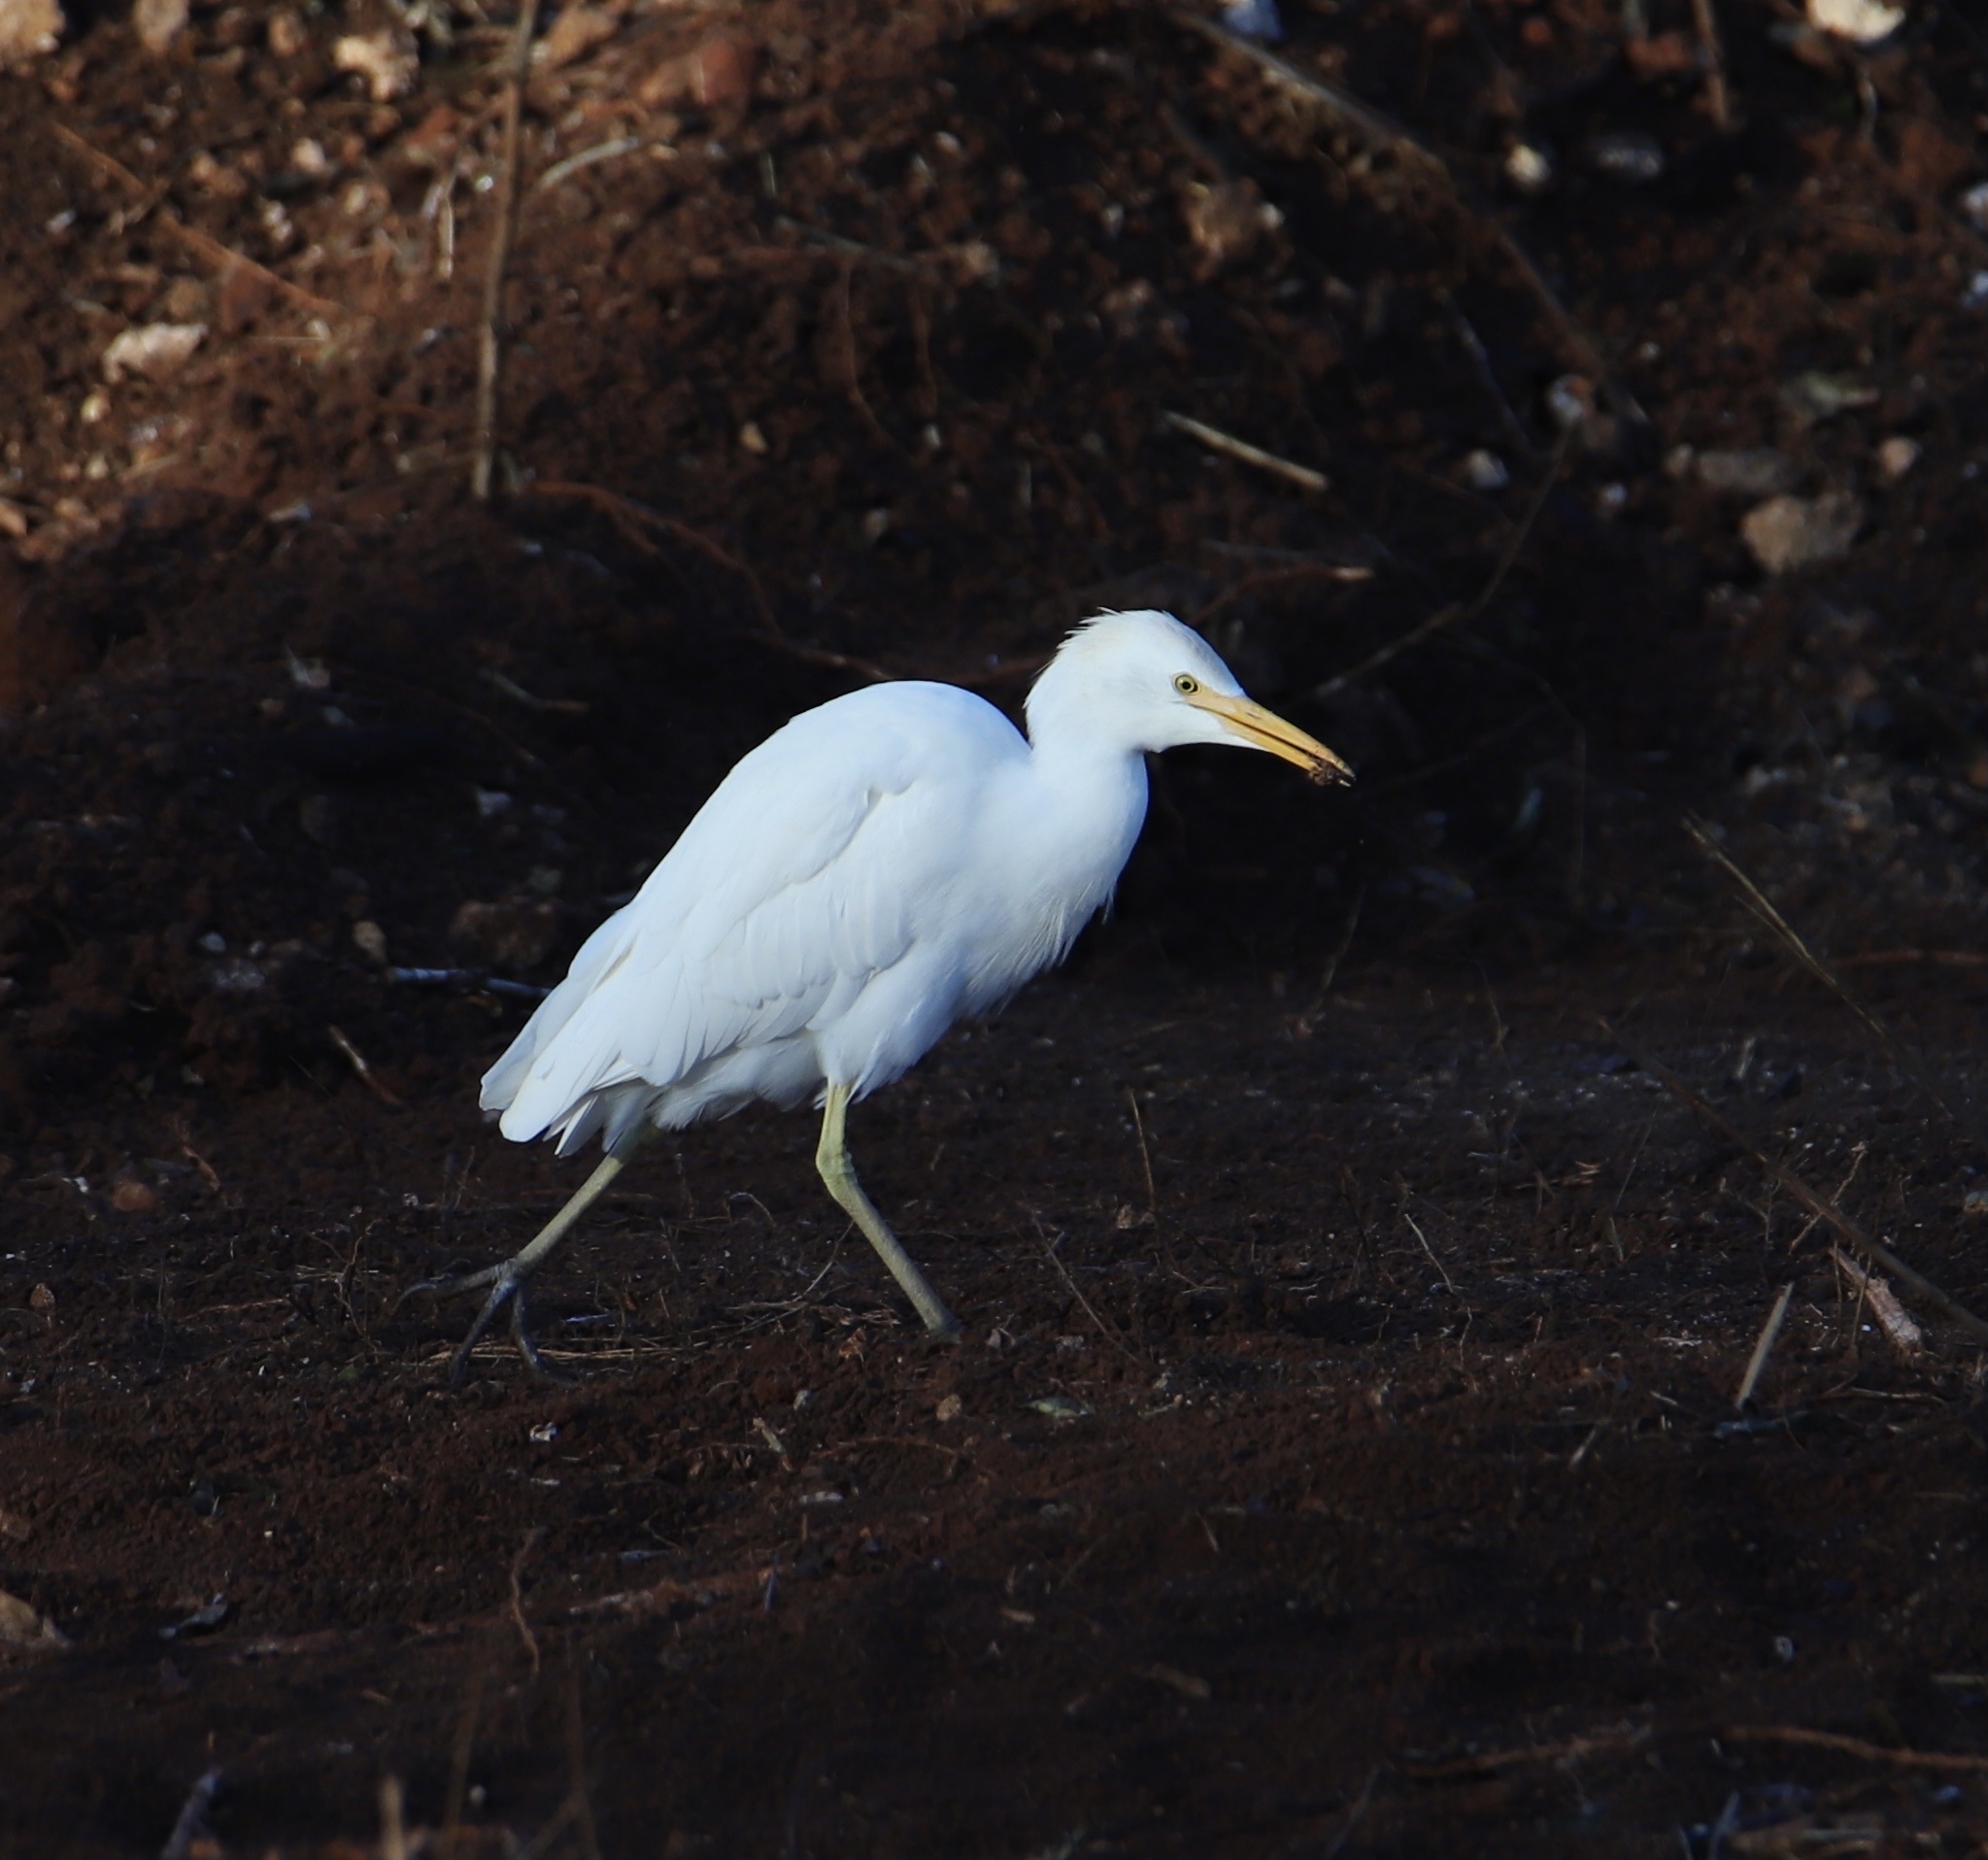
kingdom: Animalia
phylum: Chordata
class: Aves
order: Pelecaniformes
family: Ardeidae
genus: Bubulcus
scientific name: Bubulcus ibis
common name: Cattle egret
